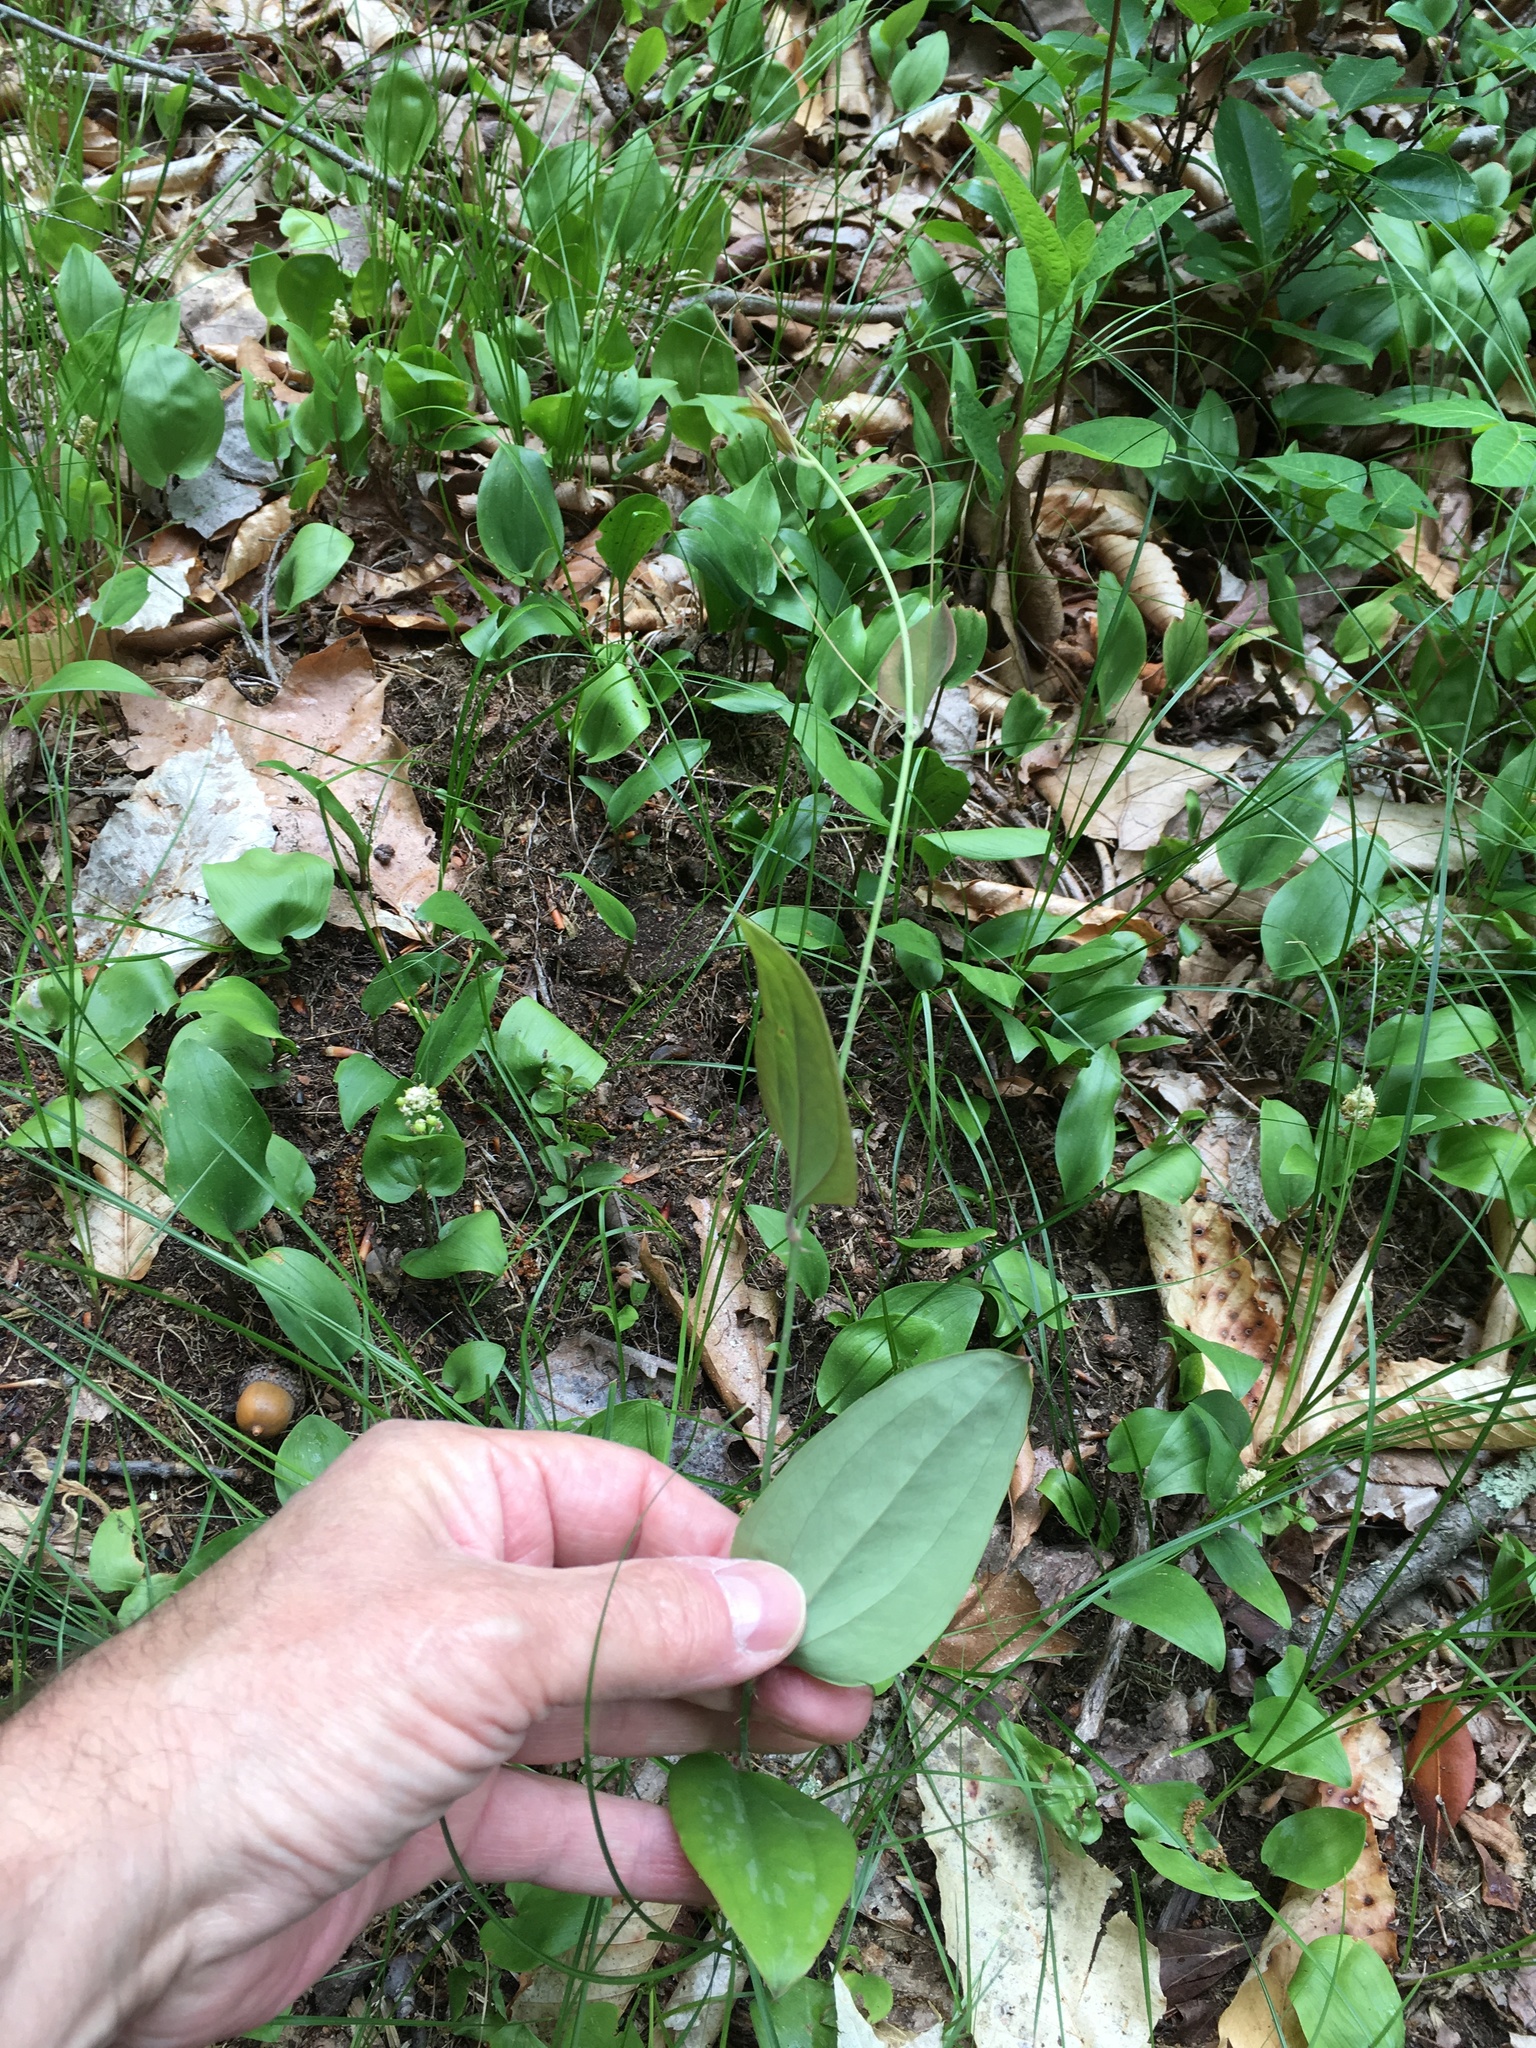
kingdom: Plantae
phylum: Tracheophyta
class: Liliopsida
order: Liliales
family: Smilacaceae
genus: Smilax
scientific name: Smilax glauca
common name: Cat greenbrier
